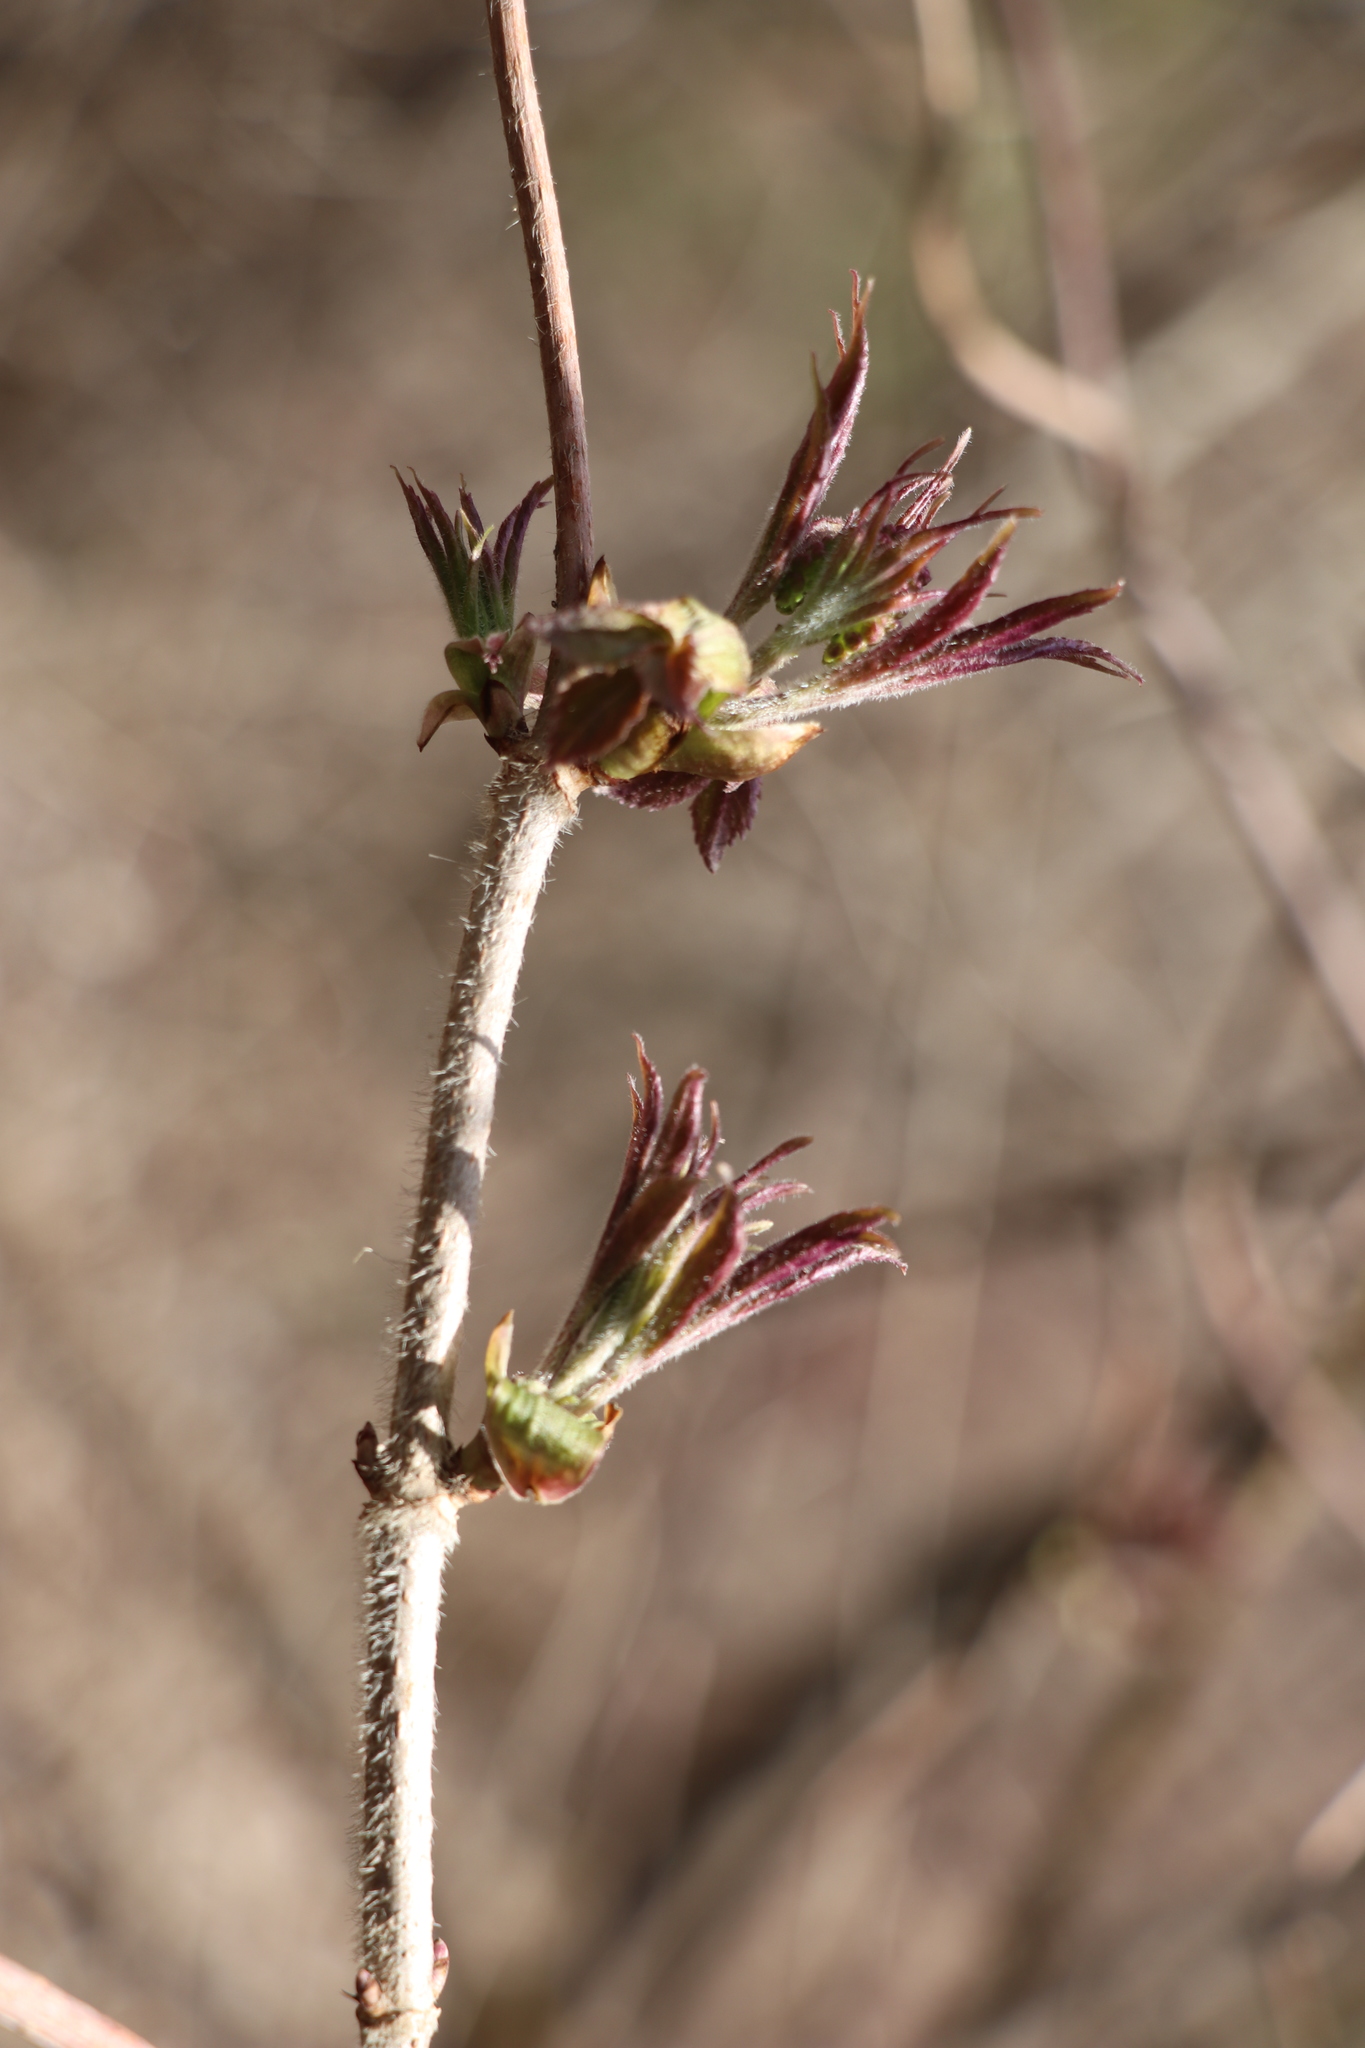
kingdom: Plantae
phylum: Tracheophyta
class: Magnoliopsida
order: Dipsacales
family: Viburnaceae
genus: Sambucus
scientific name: Sambucus sibirica
